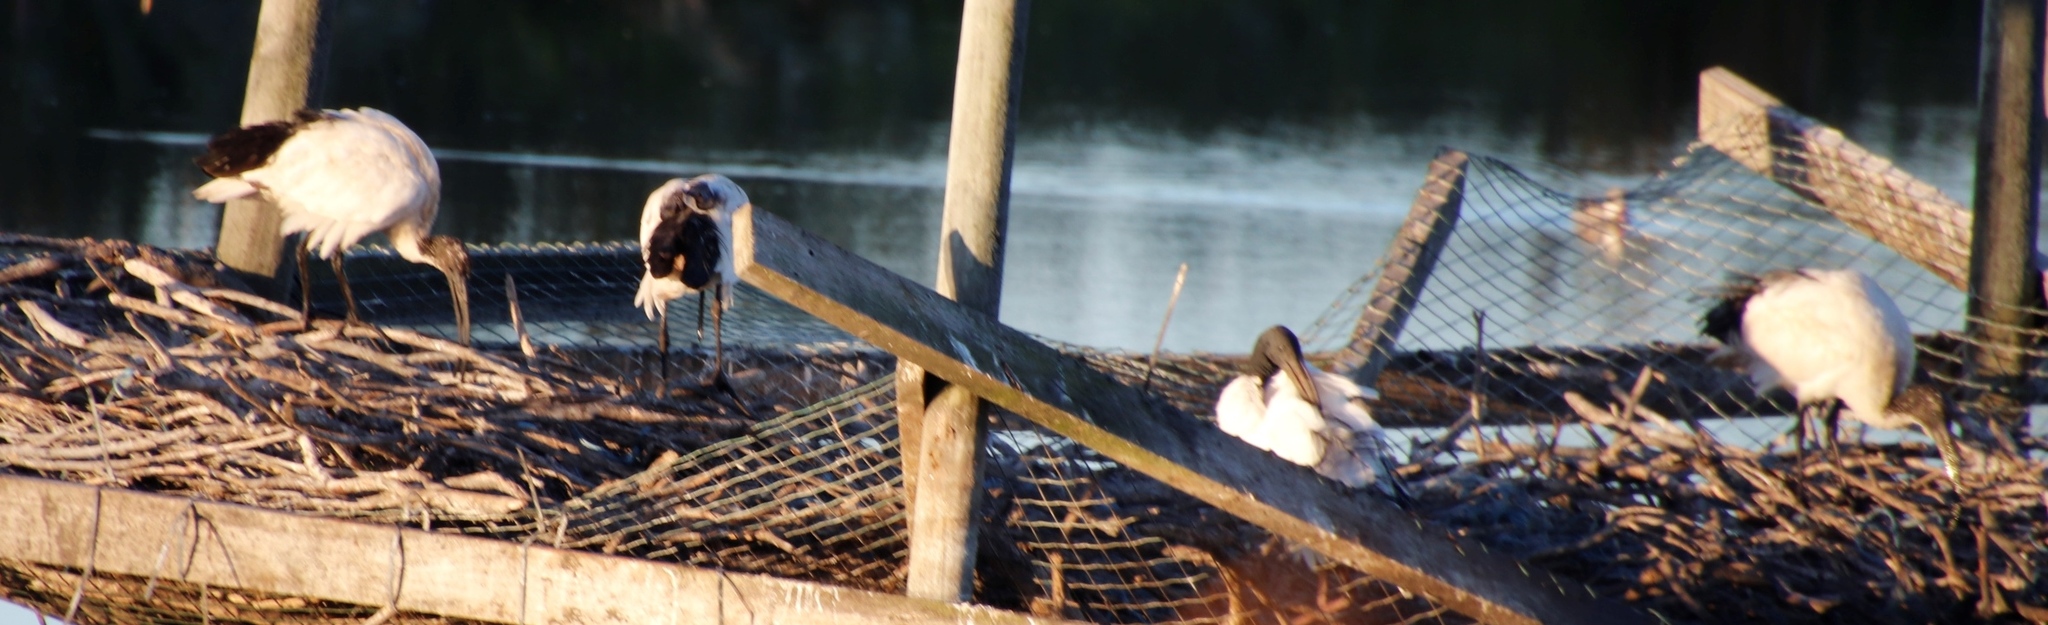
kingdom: Animalia
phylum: Chordata
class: Aves
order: Pelecaniformes
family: Threskiornithidae
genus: Threskiornis
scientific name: Threskiornis aethiopicus
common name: Sacred ibis
